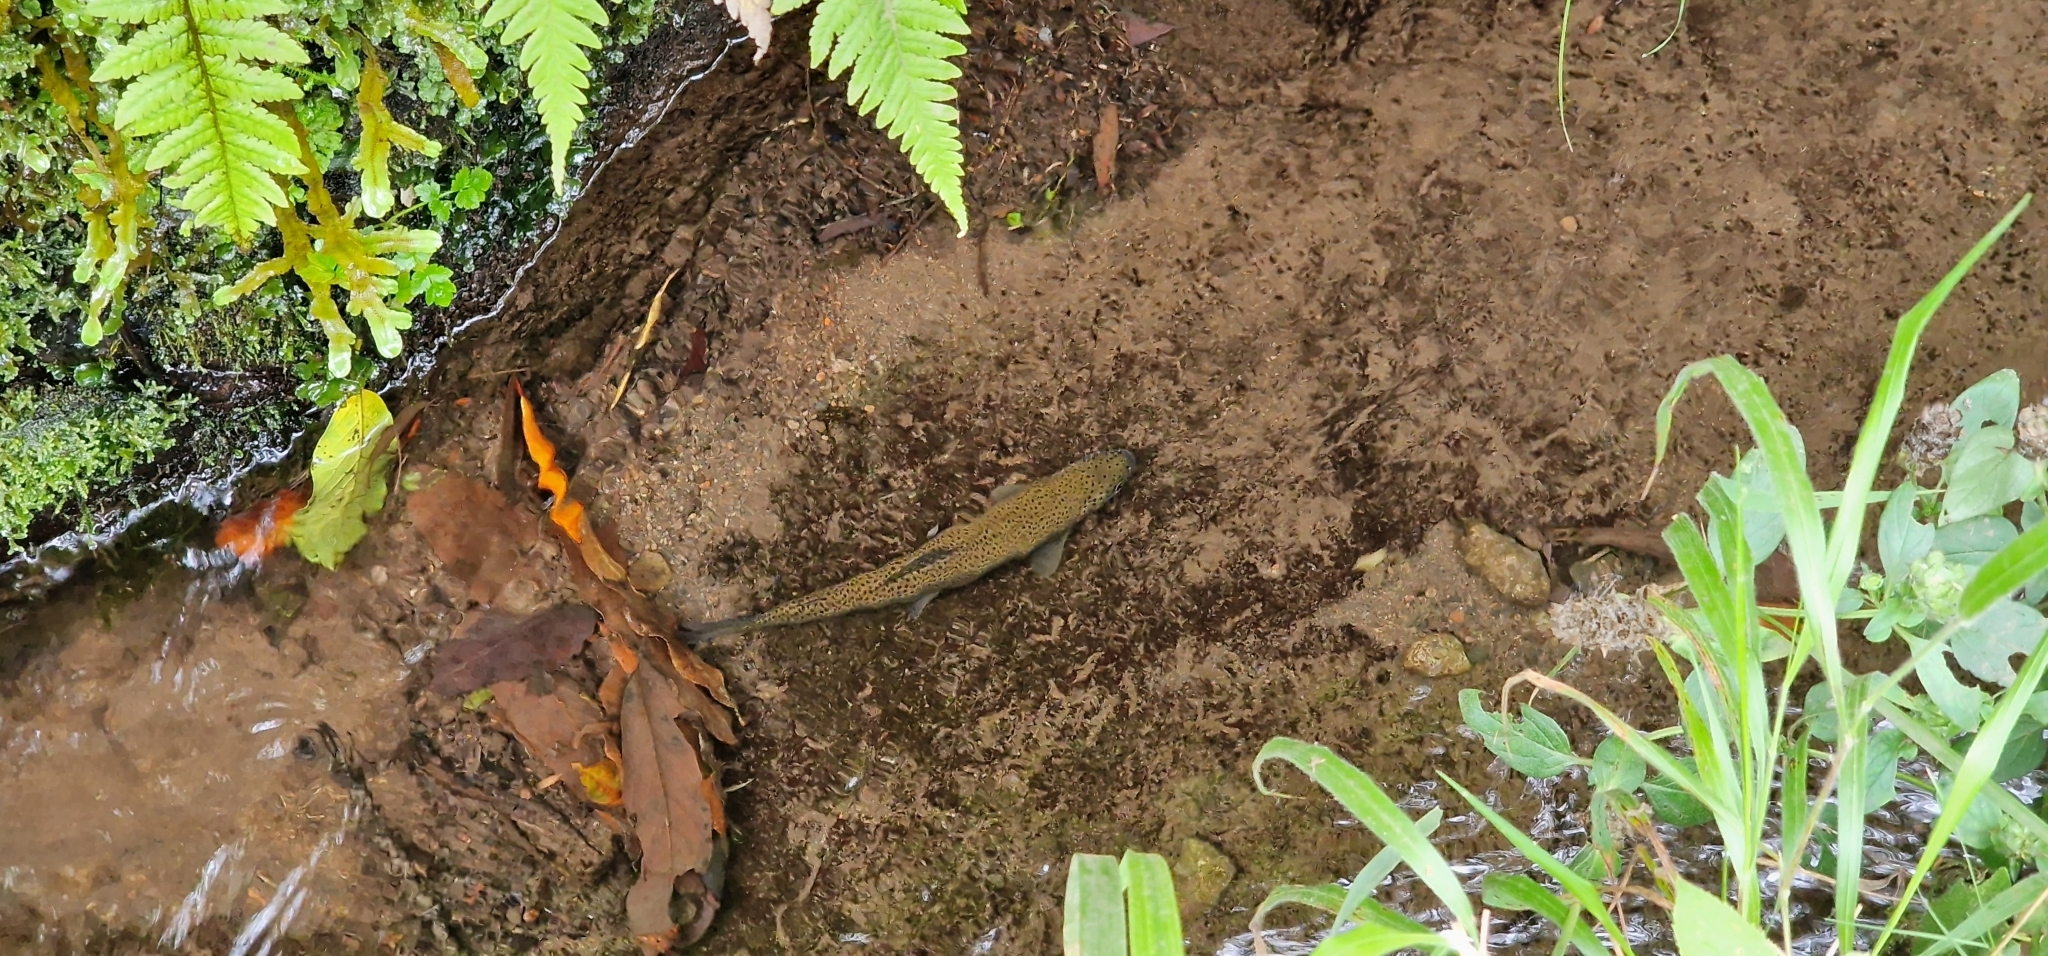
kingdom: Animalia
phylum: Chordata
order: Salmoniformes
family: Salmonidae
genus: Oncorhynchus
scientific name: Oncorhynchus mykiss
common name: Rainbow trout
